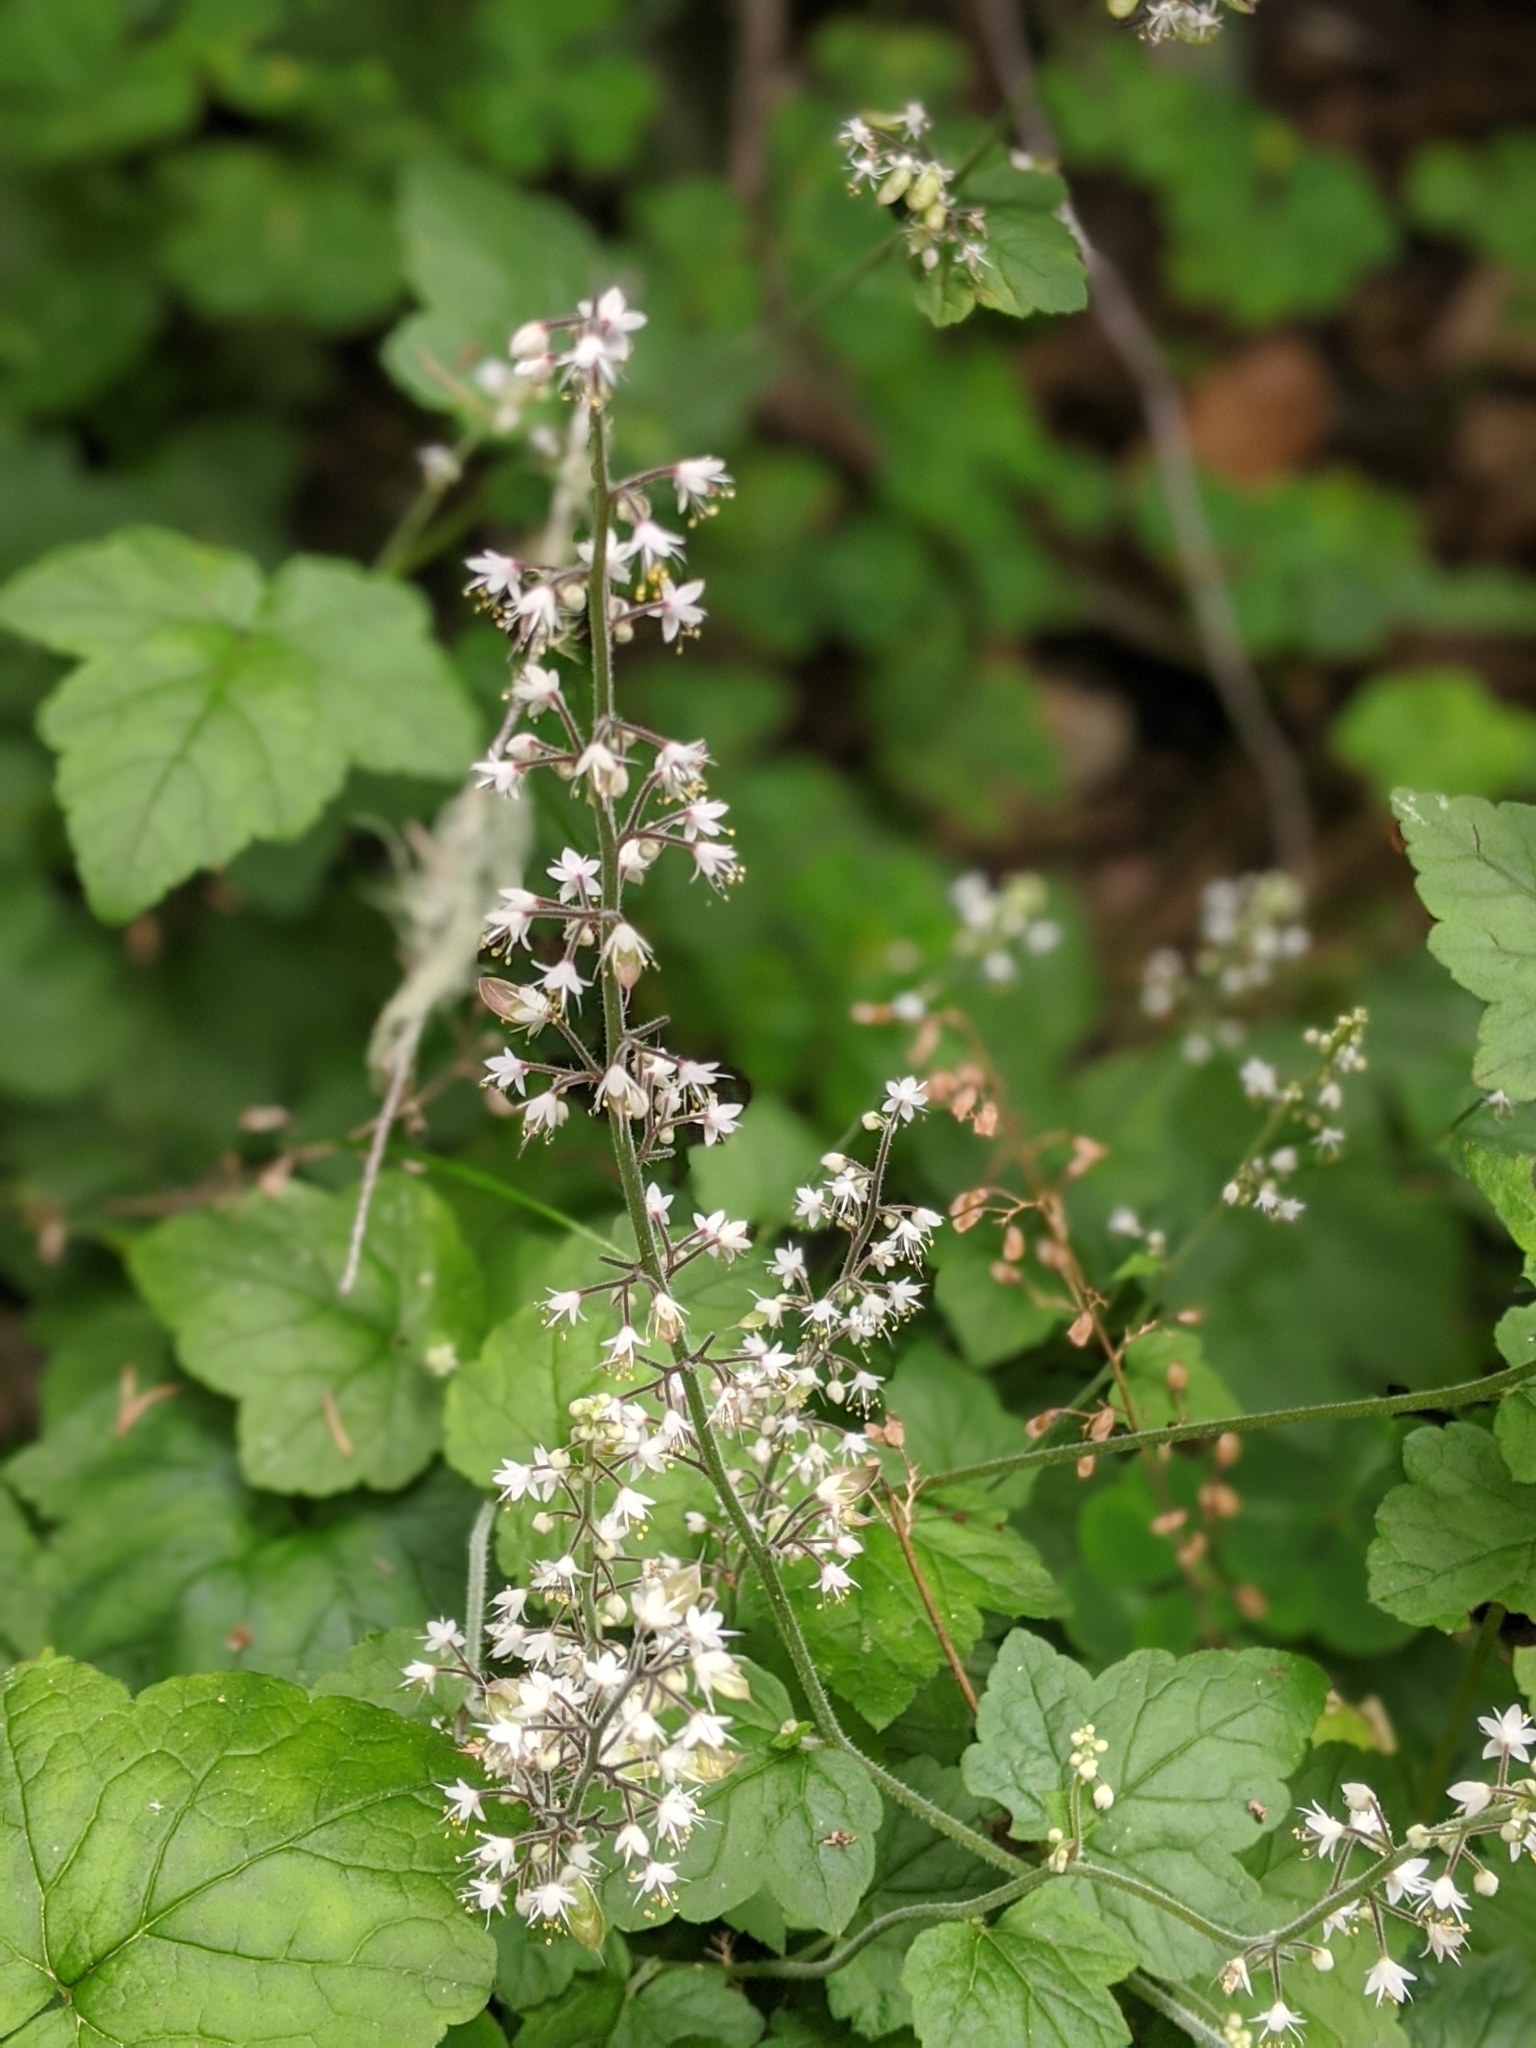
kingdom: Plantae
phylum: Tracheophyta
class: Magnoliopsida
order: Saxifragales
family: Saxifragaceae
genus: Tiarella
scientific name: Tiarella trifoliata
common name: Sugar-scoop
